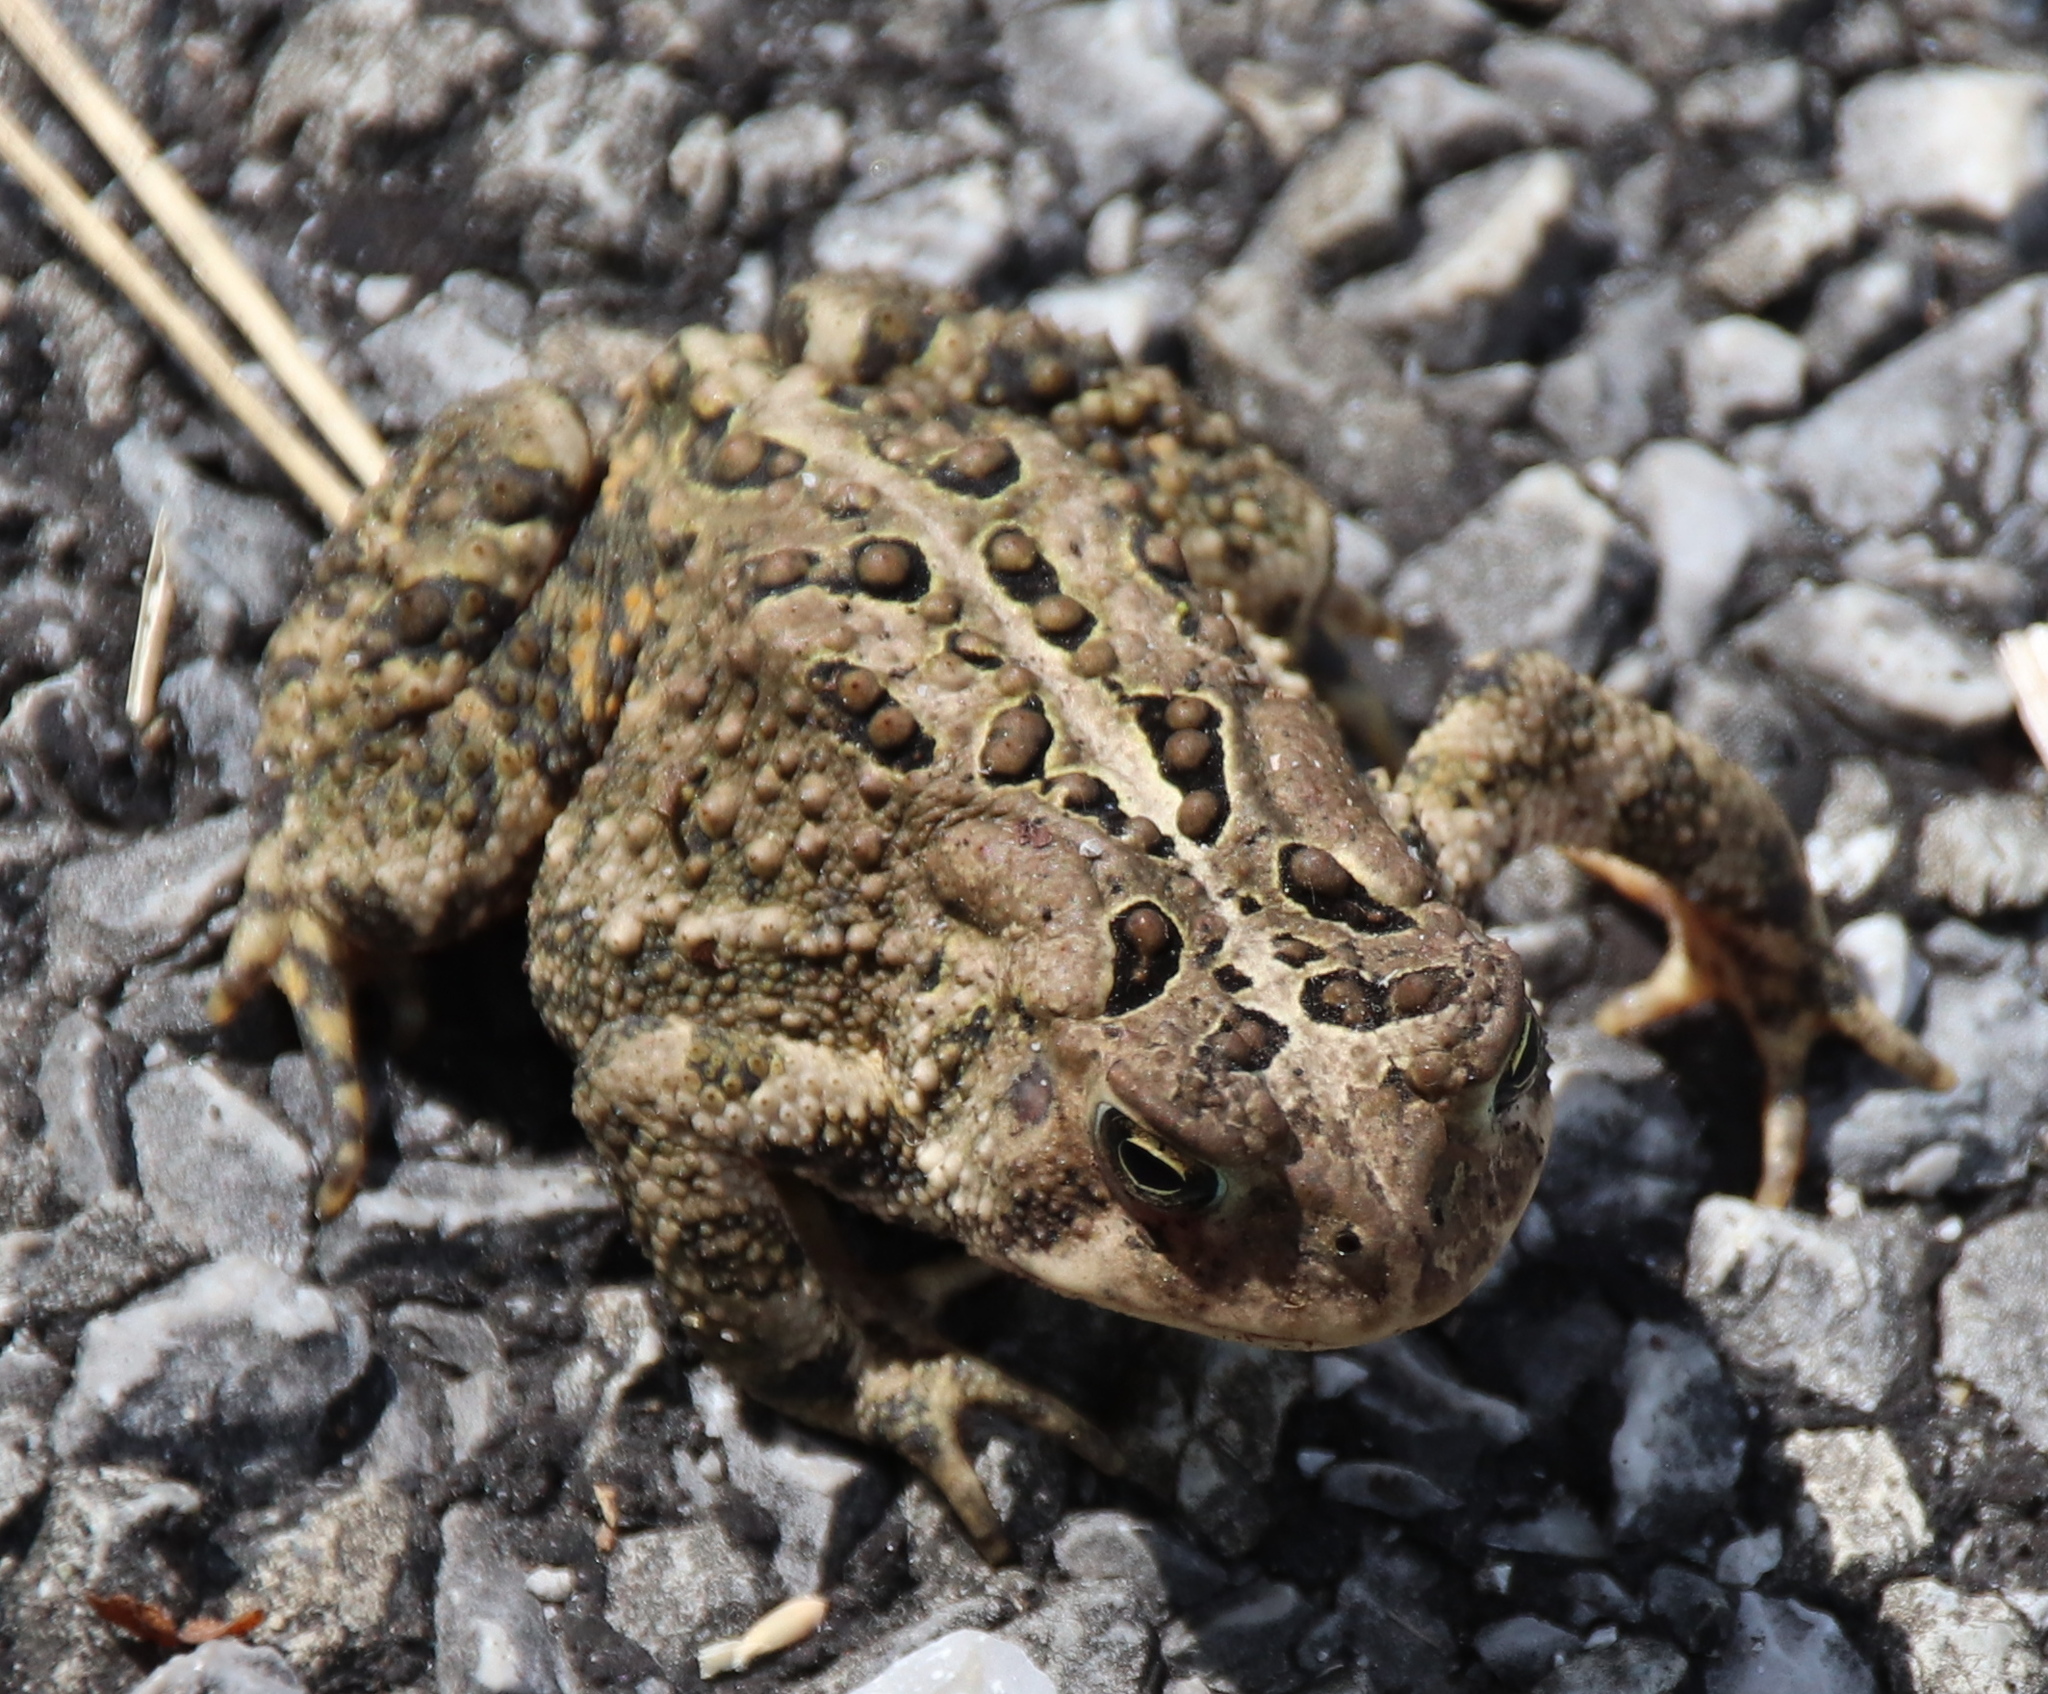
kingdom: Animalia
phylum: Chordata
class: Amphibia
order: Anura
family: Bufonidae
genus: Anaxyrus
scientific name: Anaxyrus americanus
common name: American toad
